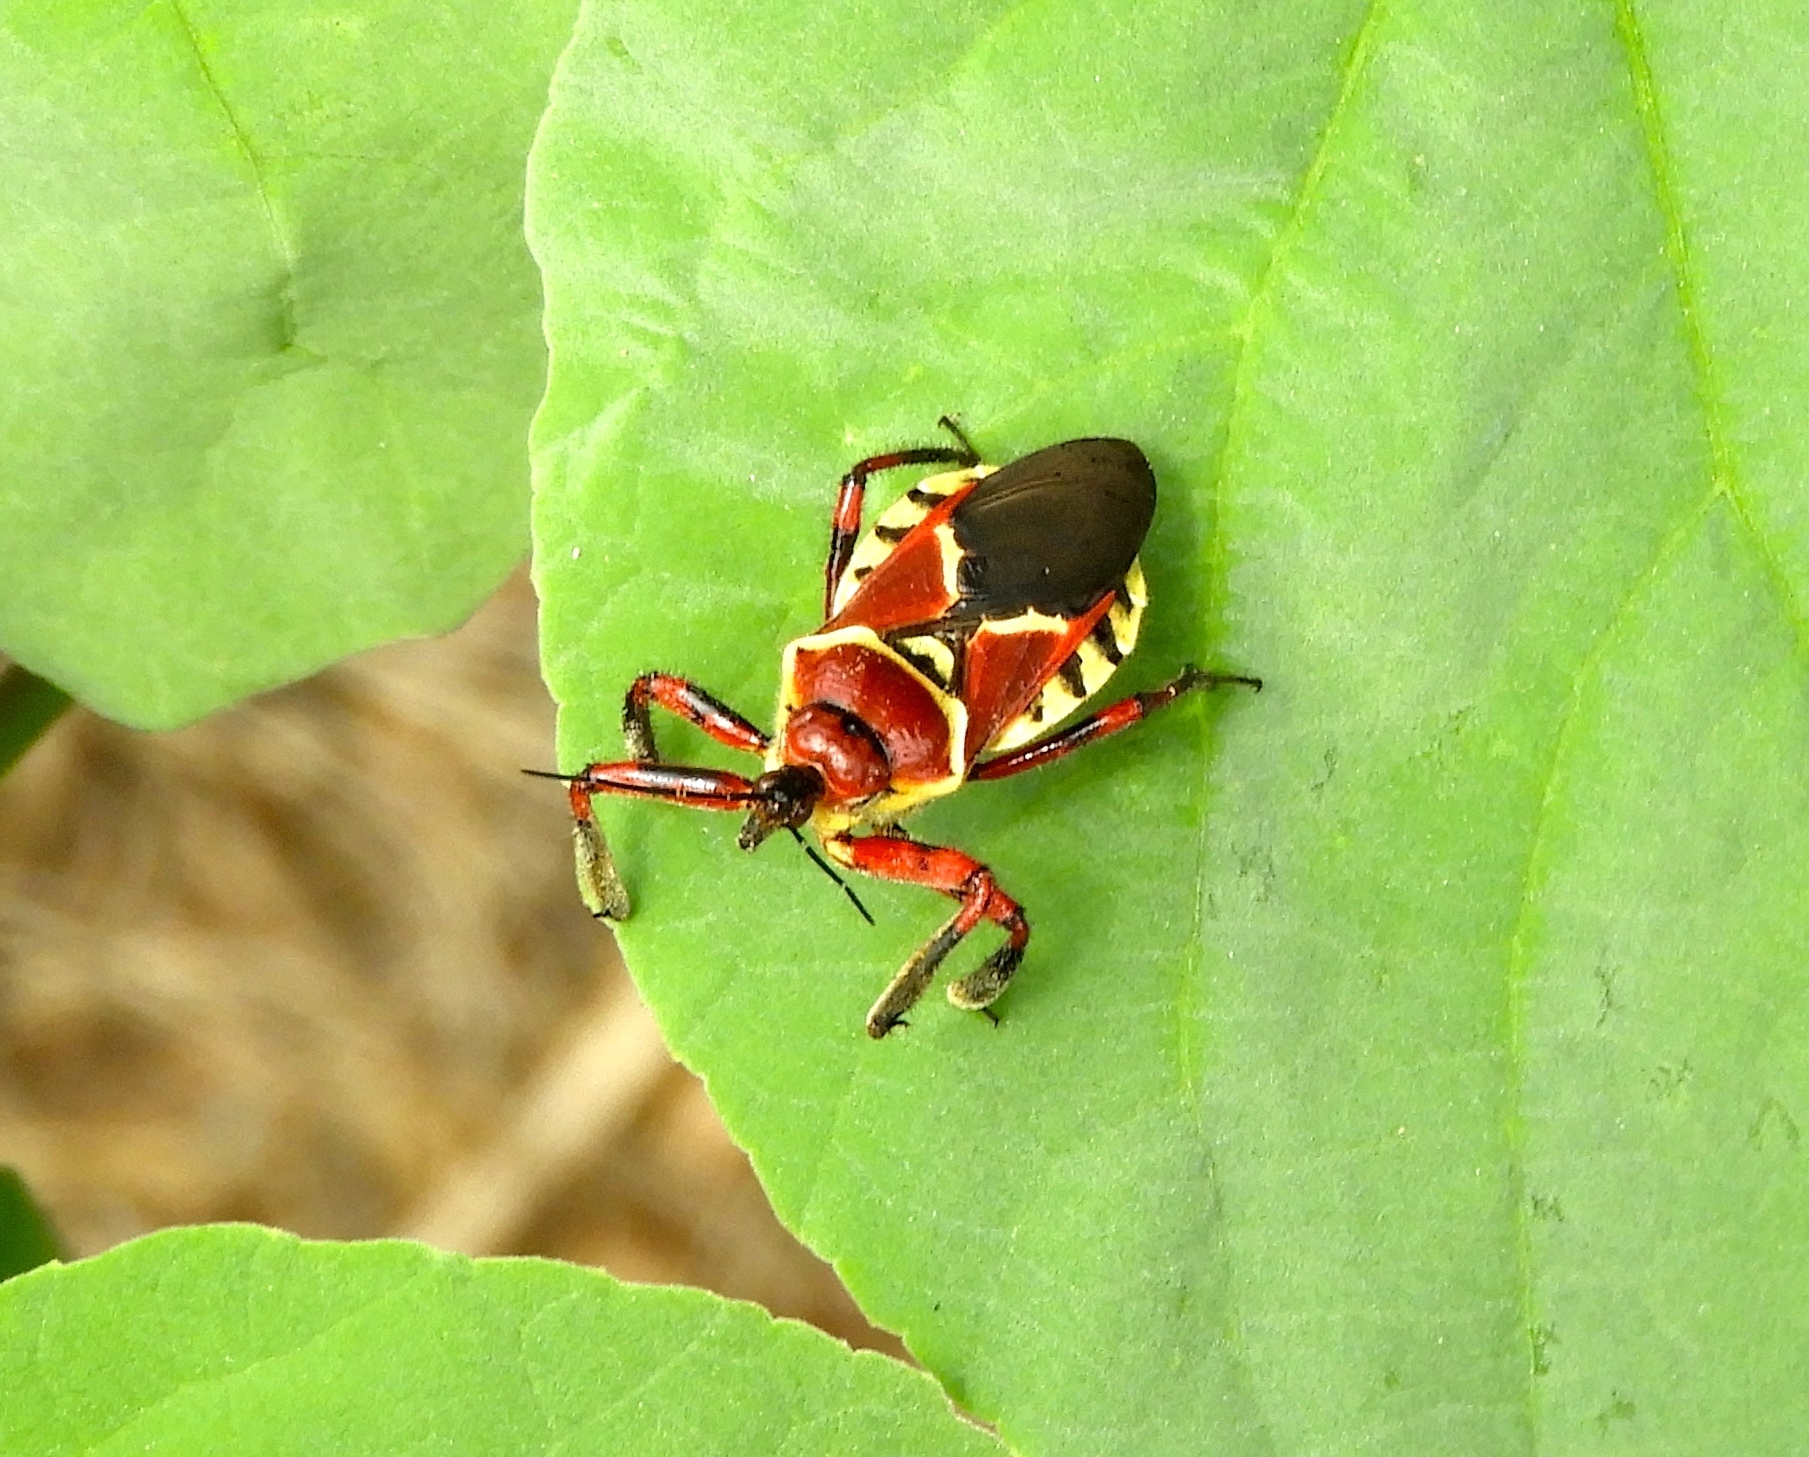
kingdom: Animalia
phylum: Arthropoda
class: Insecta
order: Hemiptera
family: Reduviidae
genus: Apiomerus
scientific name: Apiomerus flaviventris
